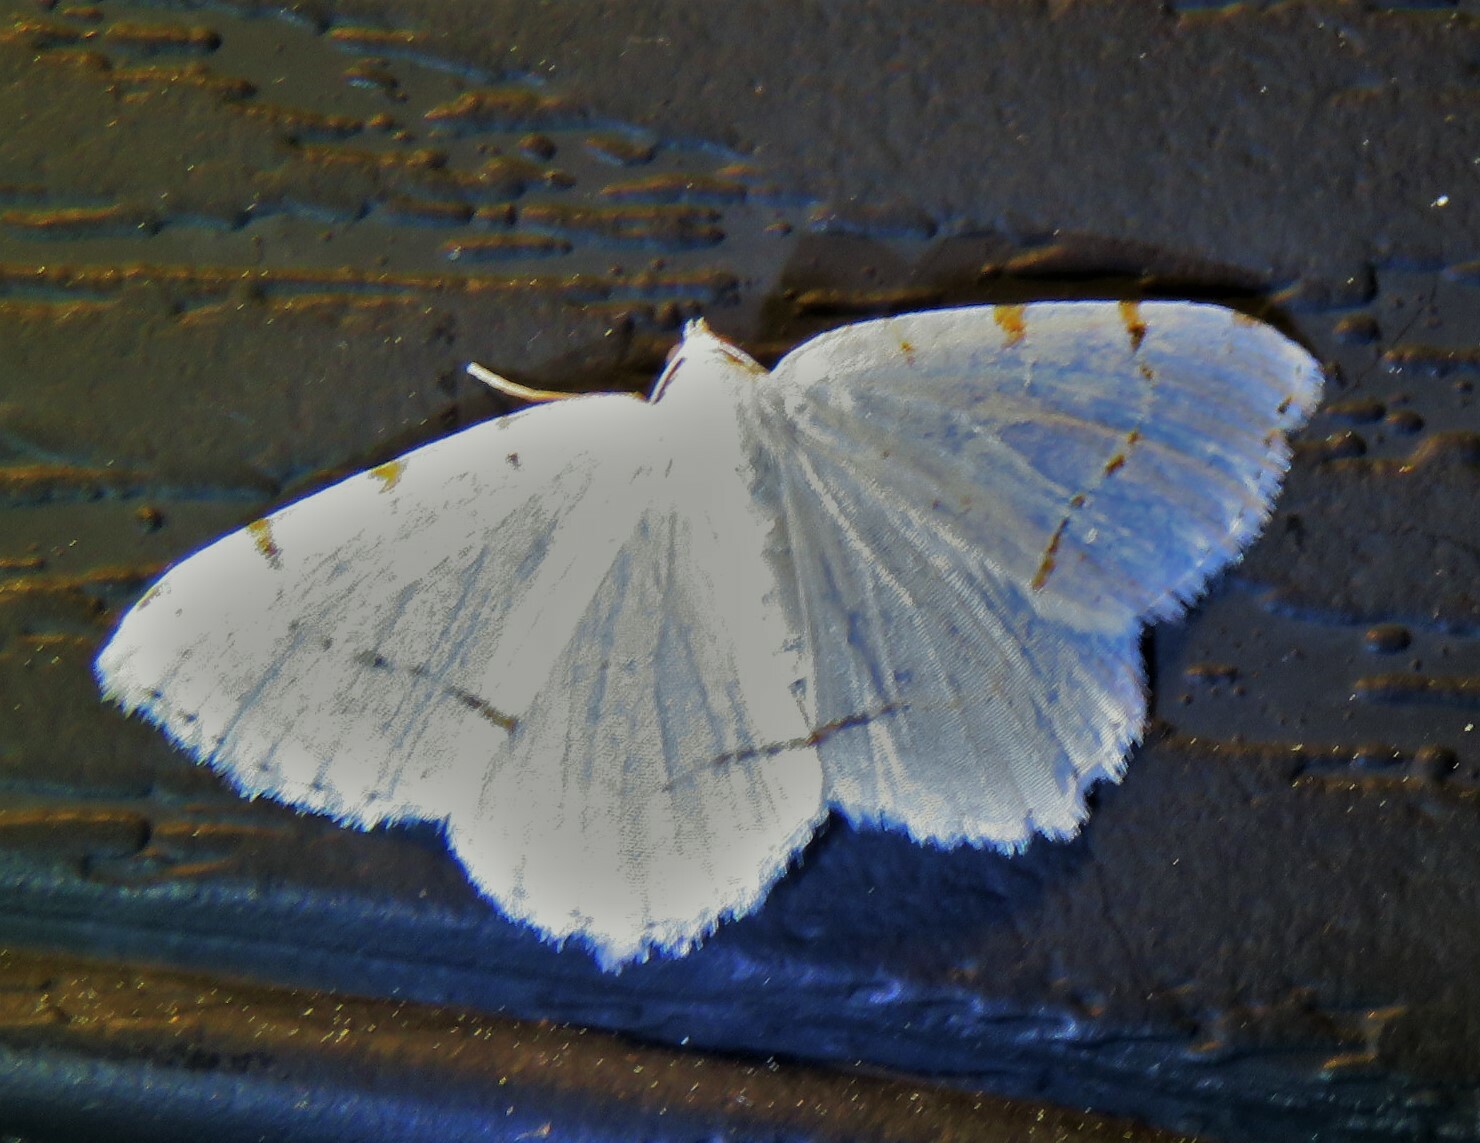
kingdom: Animalia
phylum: Arthropoda
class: Insecta
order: Lepidoptera
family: Geometridae
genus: Macaria
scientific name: Macaria pustularia
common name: Lesser maple spanworm moth
